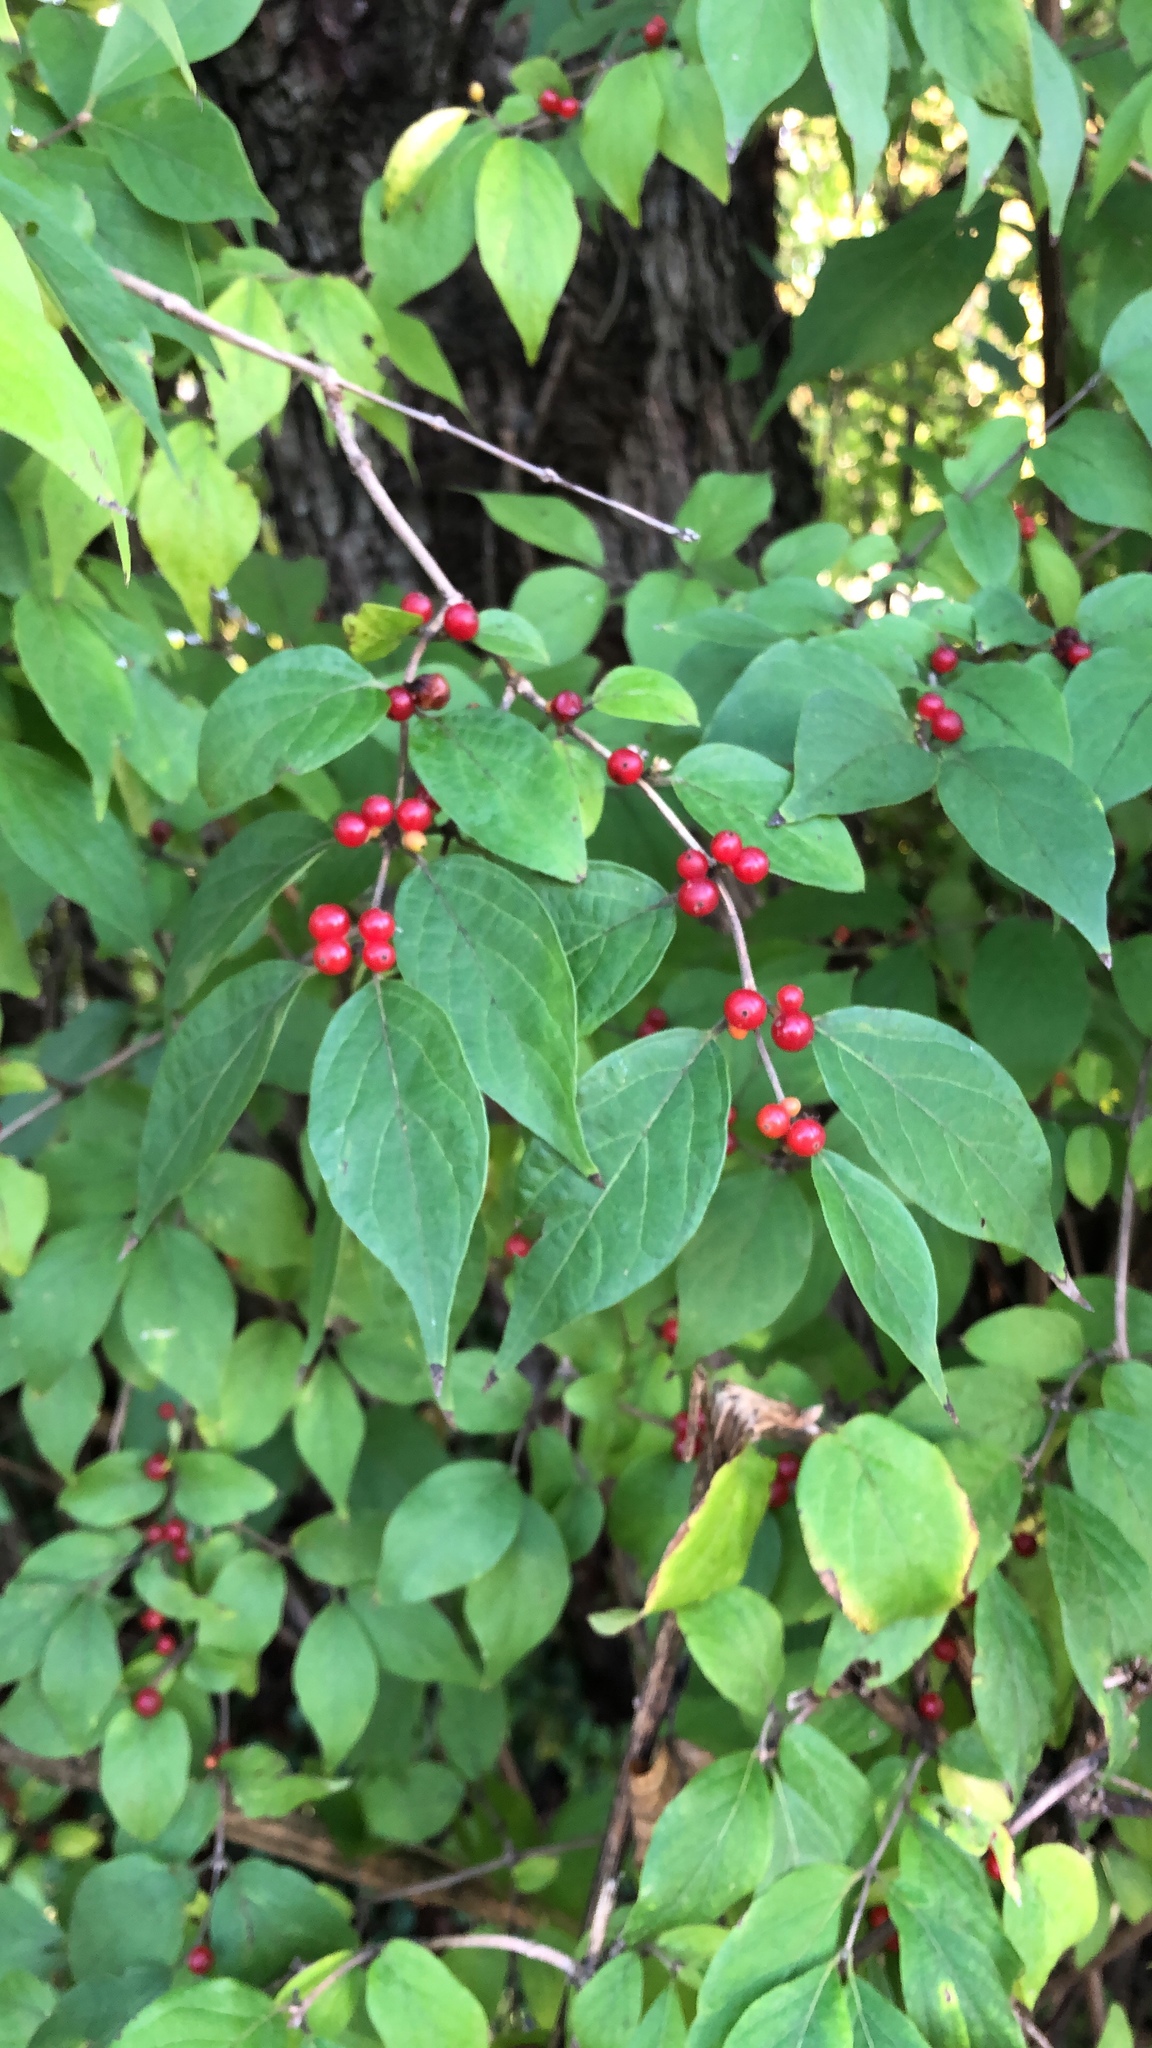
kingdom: Plantae
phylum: Tracheophyta
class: Magnoliopsida
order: Dipsacales
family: Caprifoliaceae
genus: Lonicera
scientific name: Lonicera maackii
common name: Amur honeysuckle
